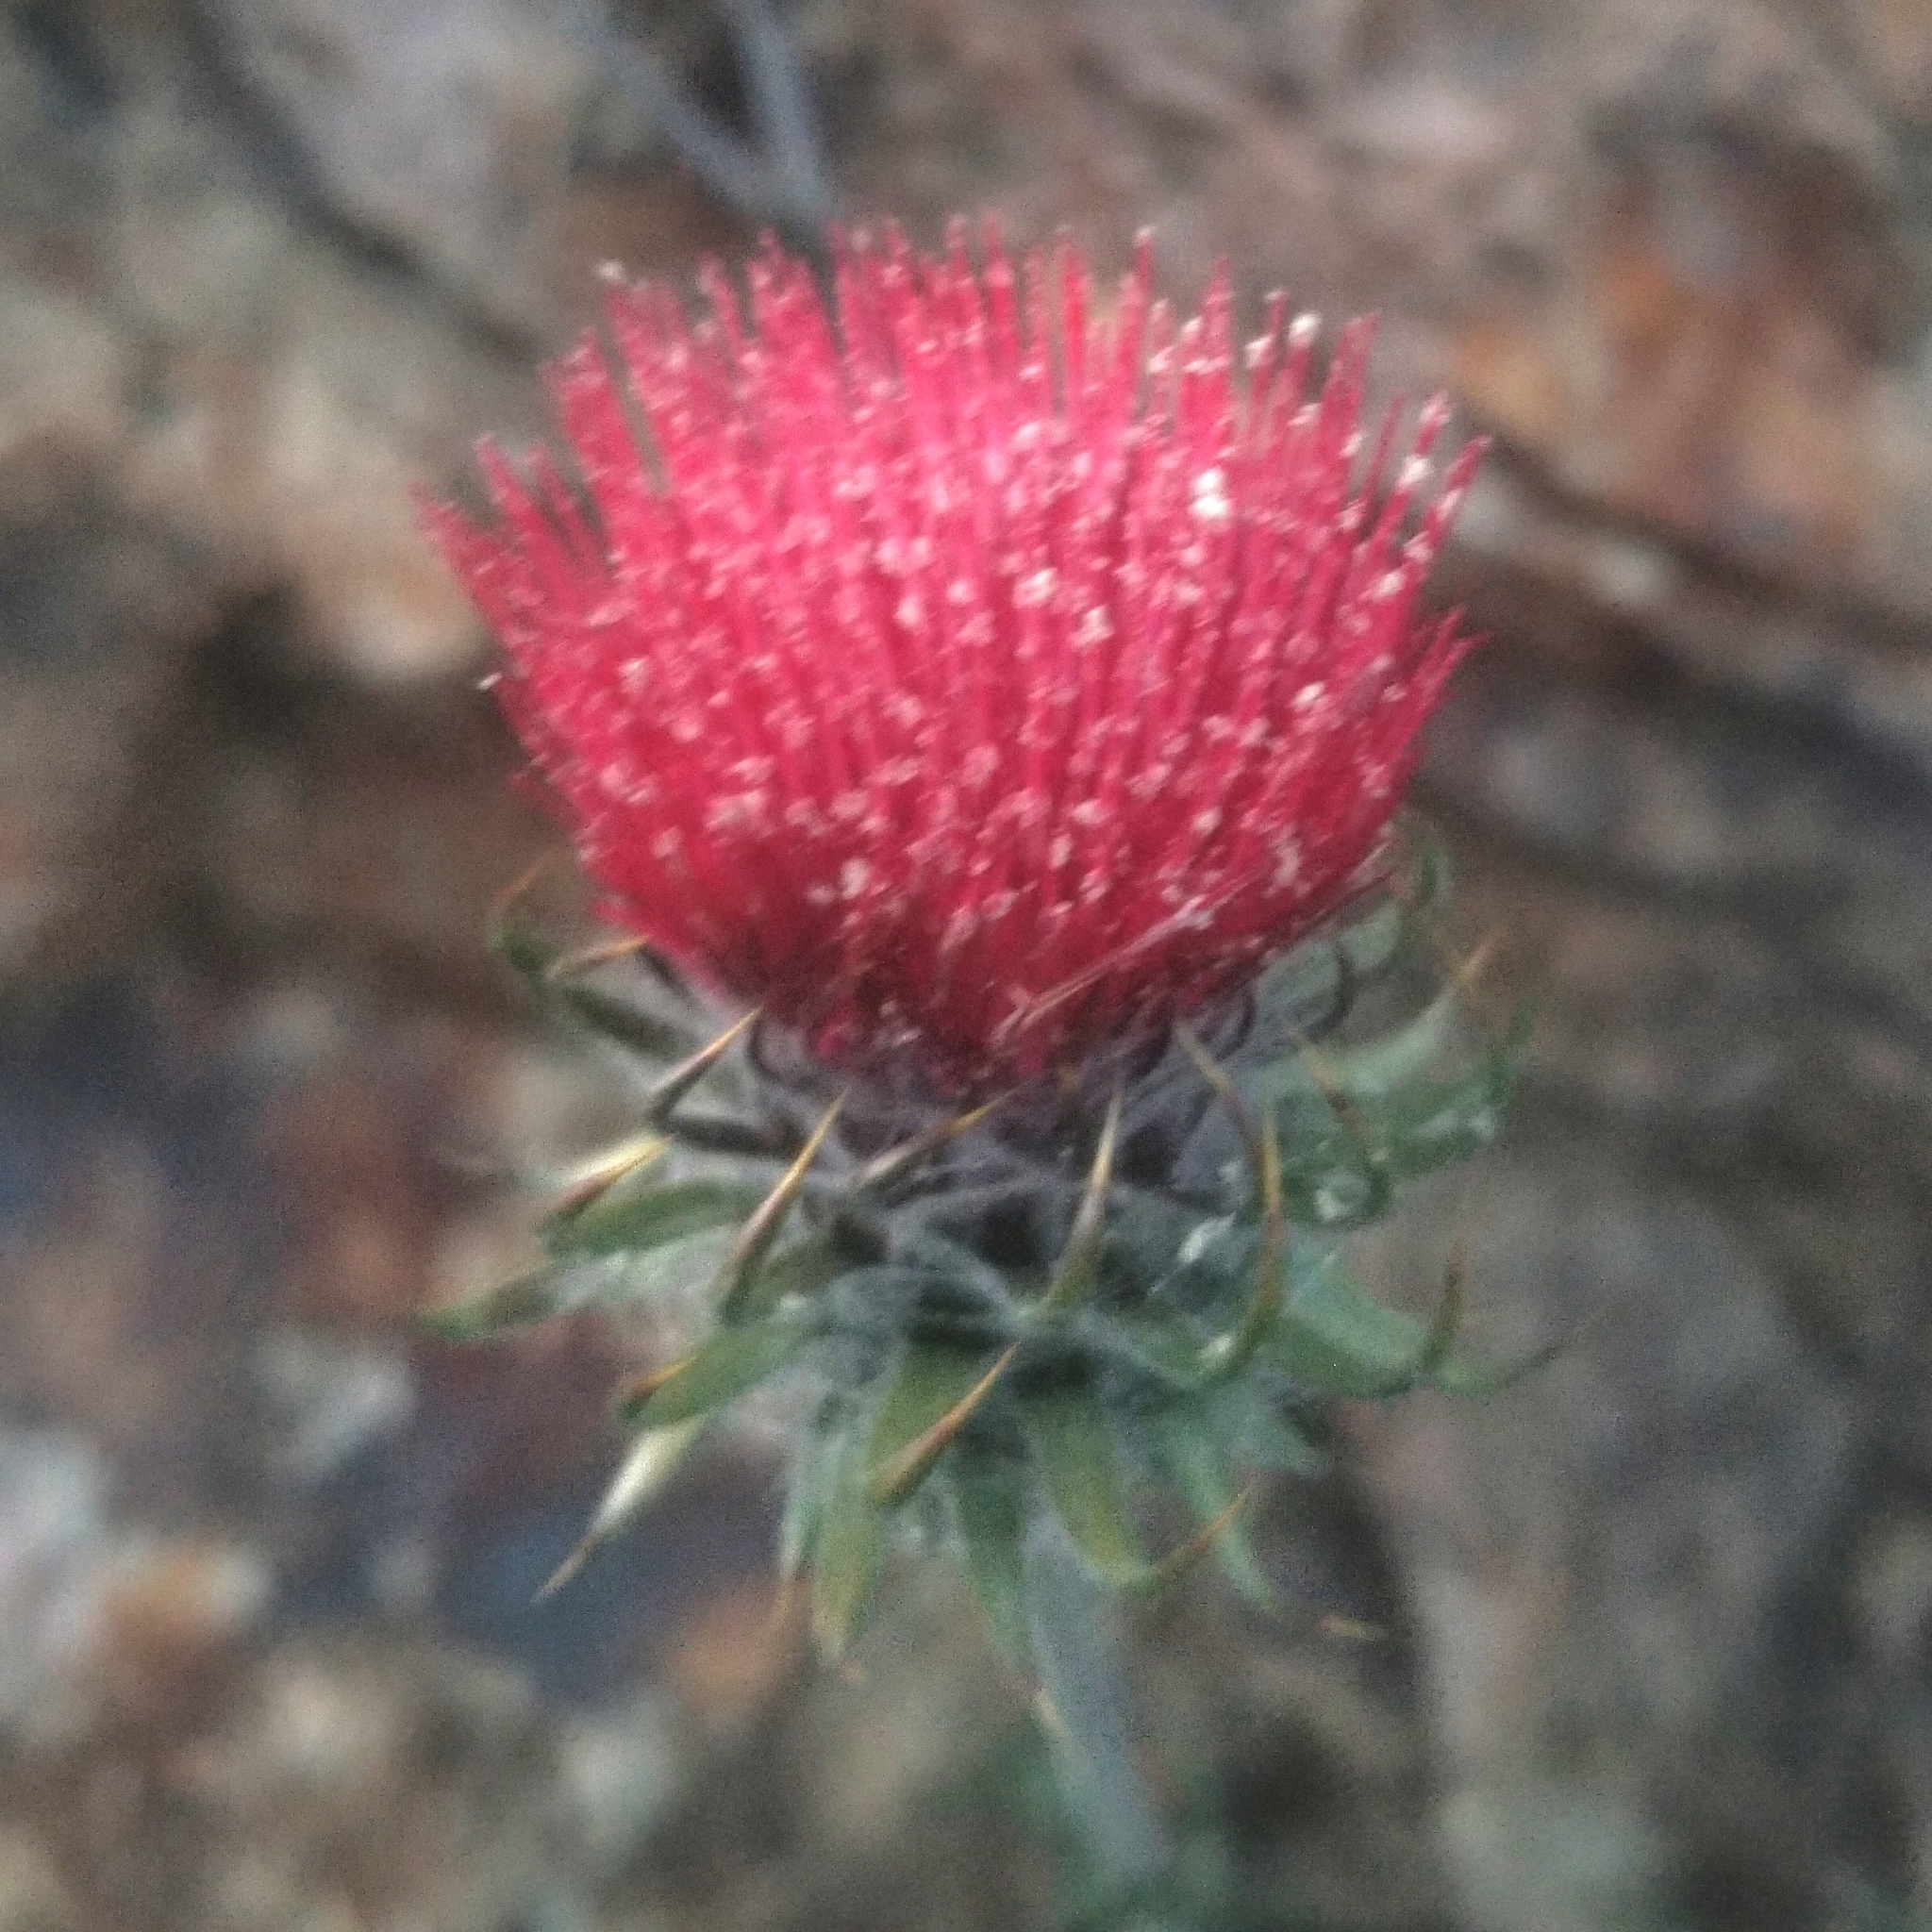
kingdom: Plantae
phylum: Tracheophyta
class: Magnoliopsida
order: Asterales
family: Asteraceae
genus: Cirsium
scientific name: Cirsium occidentale
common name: Western thistle
